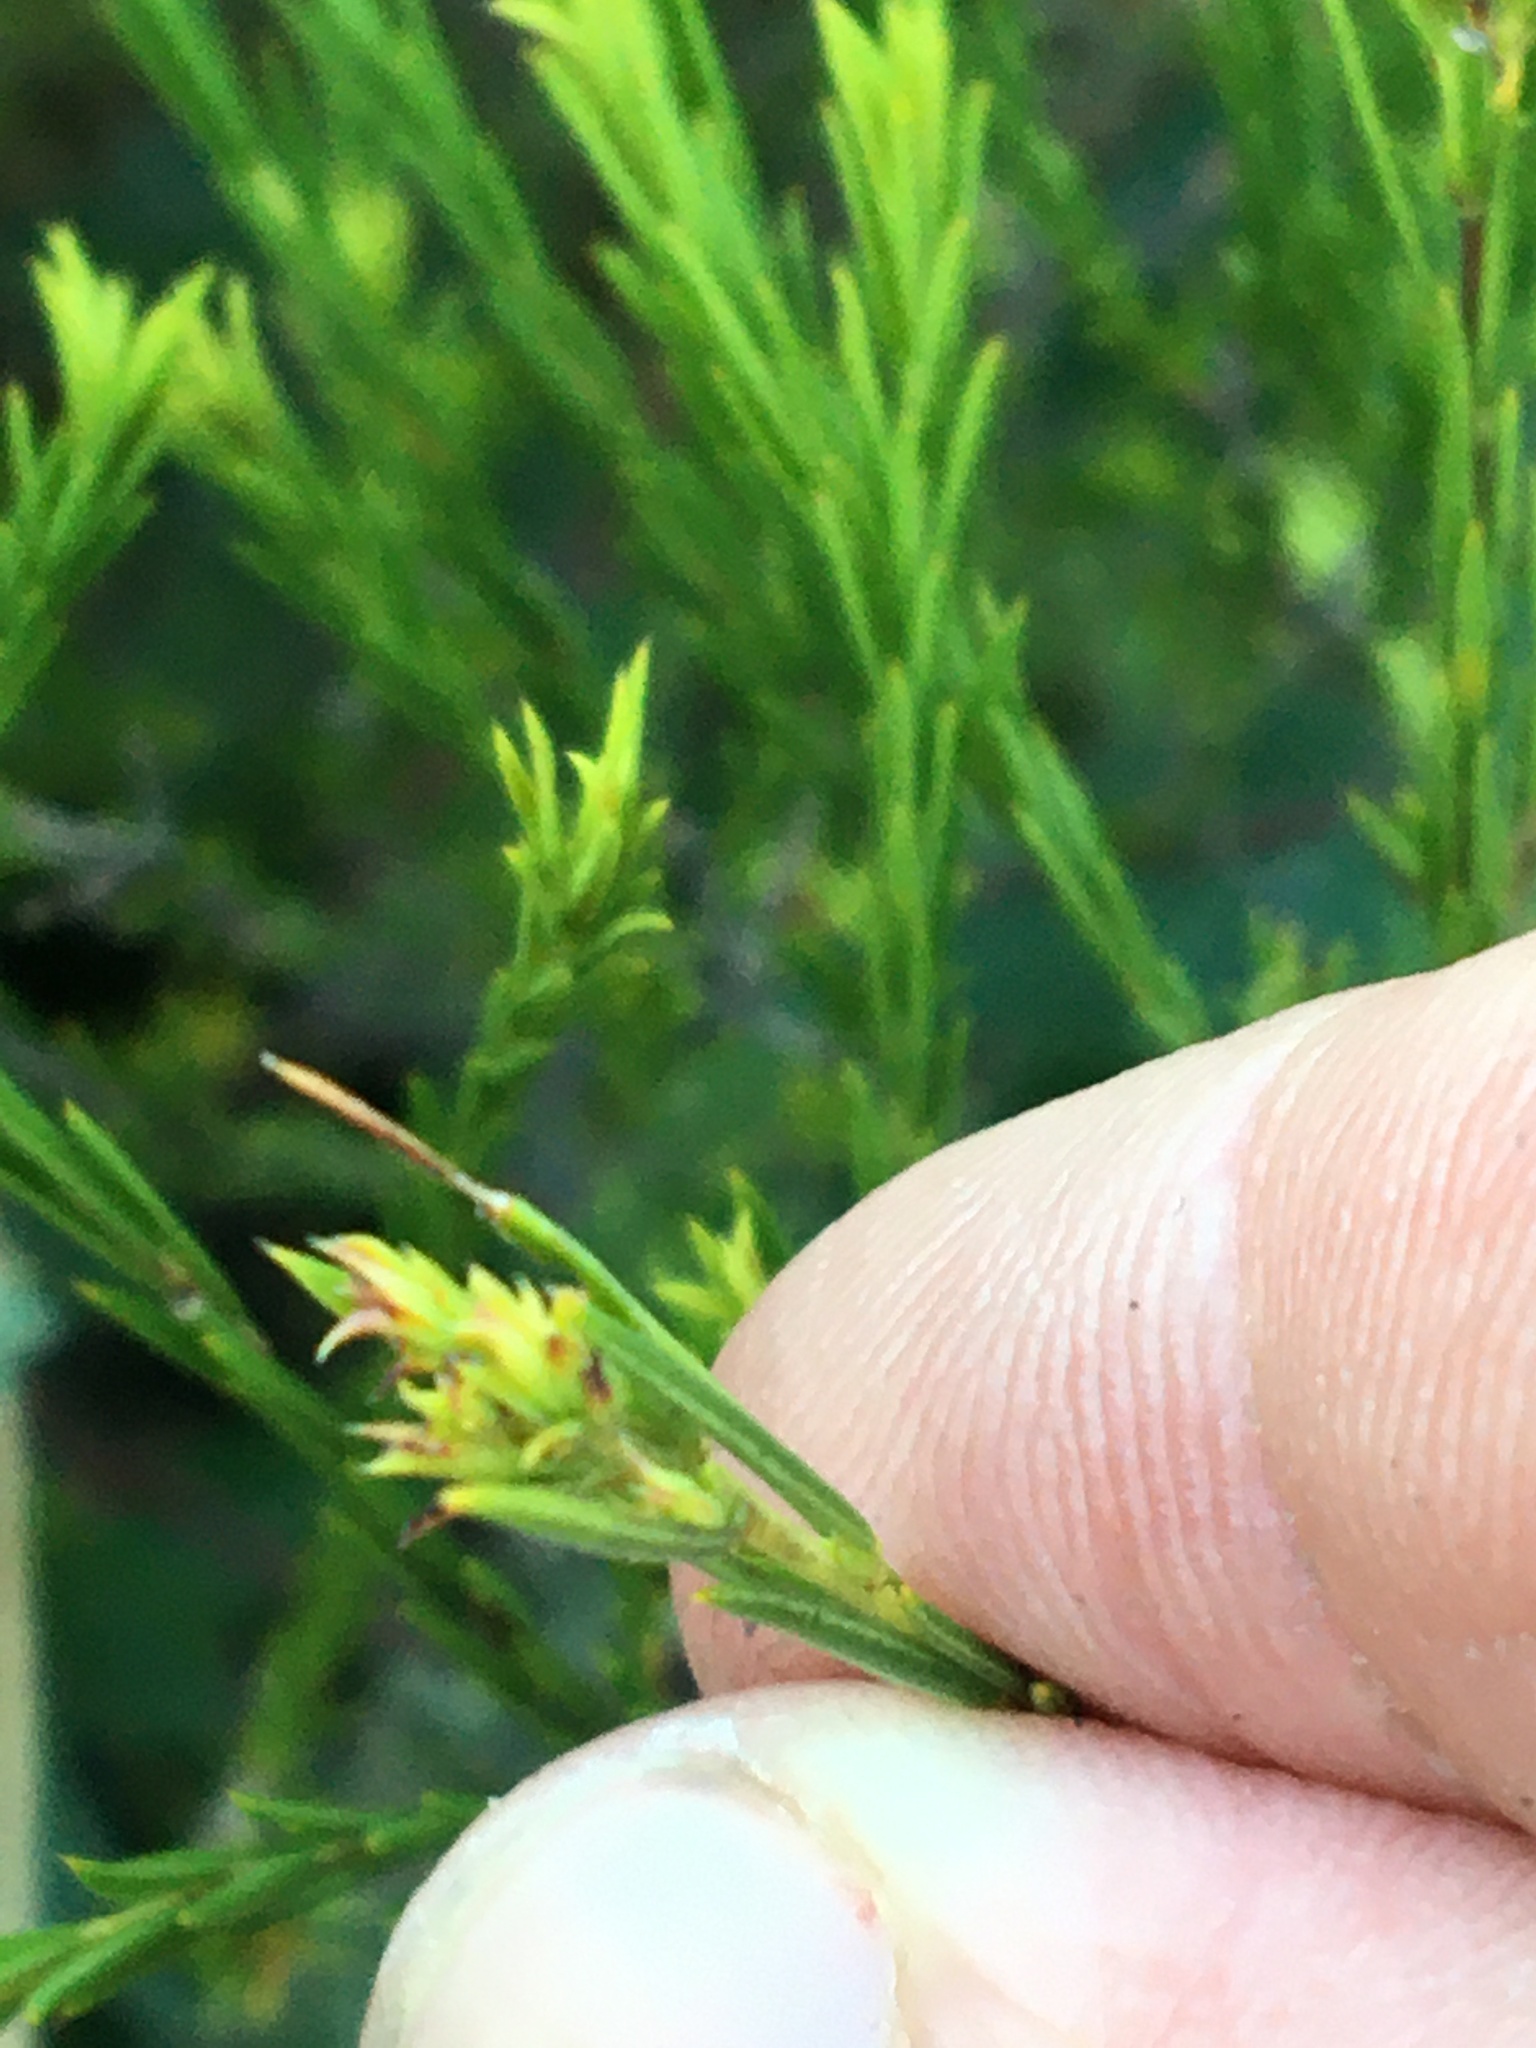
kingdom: Plantae
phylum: Tracheophyta
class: Magnoliopsida
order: Sapindales
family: Rutaceae
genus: Coleonema
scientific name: Coleonema album
